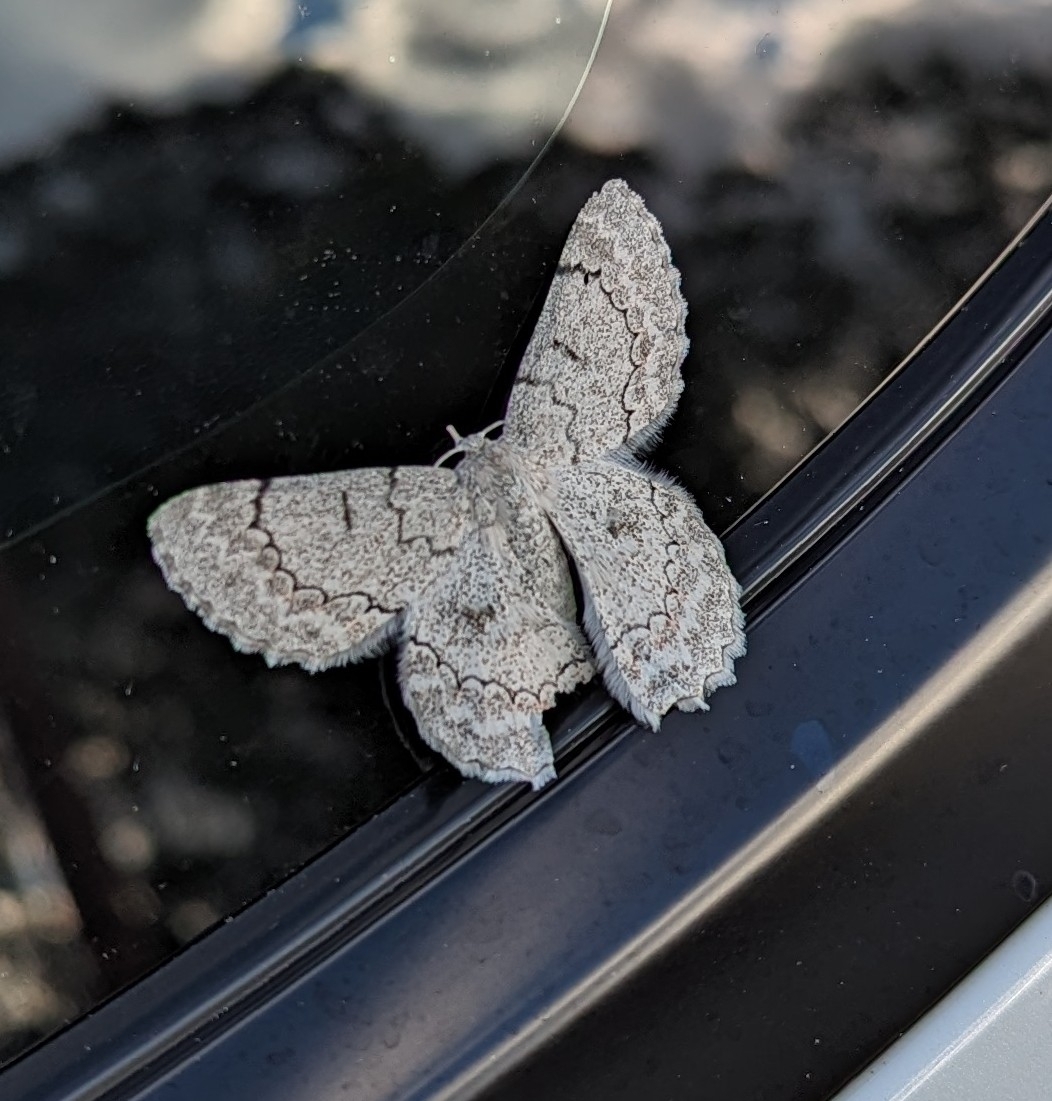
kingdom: Animalia
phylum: Arthropoda
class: Insecta
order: Lepidoptera
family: Geometridae
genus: Pingasa
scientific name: Pingasa chlora
